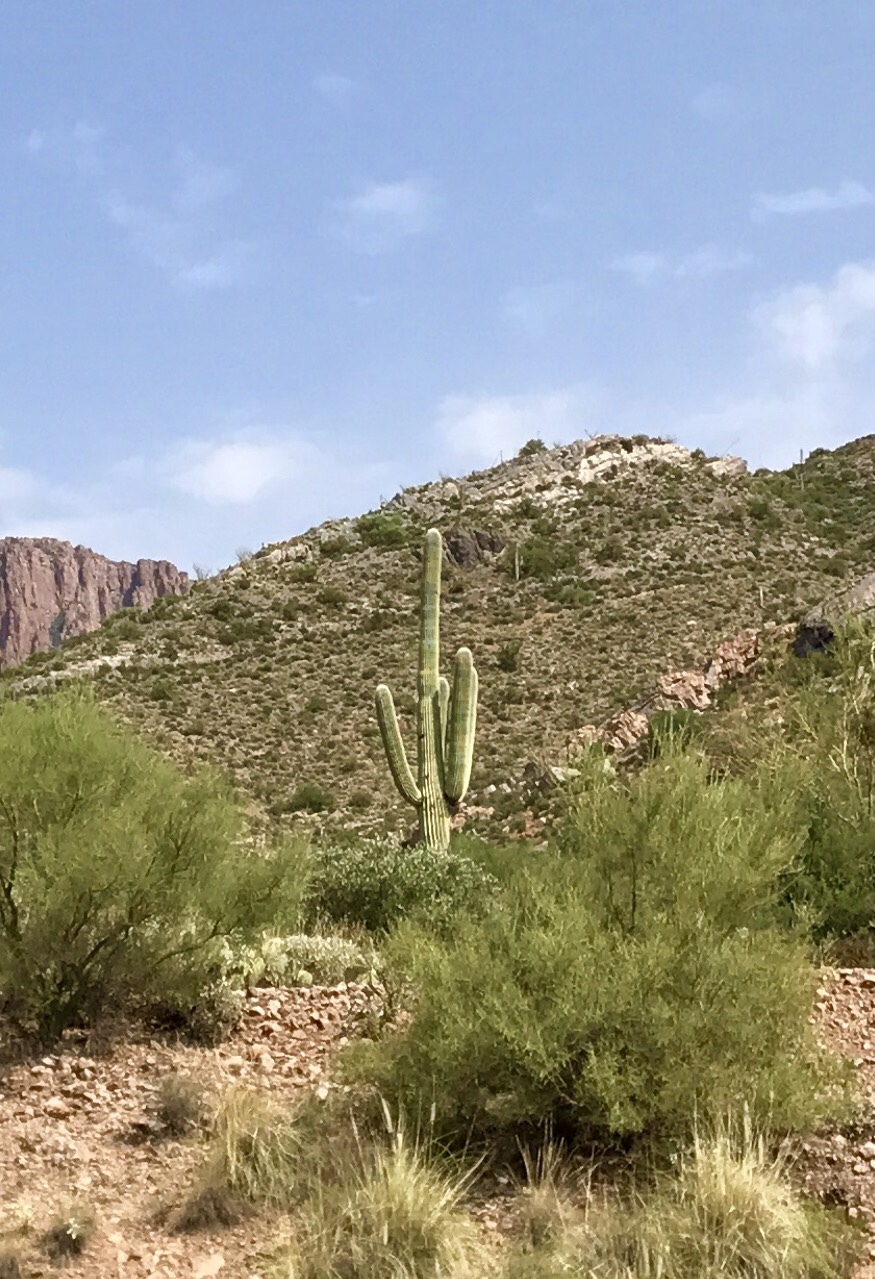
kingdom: Plantae
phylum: Tracheophyta
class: Magnoliopsida
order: Caryophyllales
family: Cactaceae
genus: Carnegiea
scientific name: Carnegiea gigantea
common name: Saguaro
